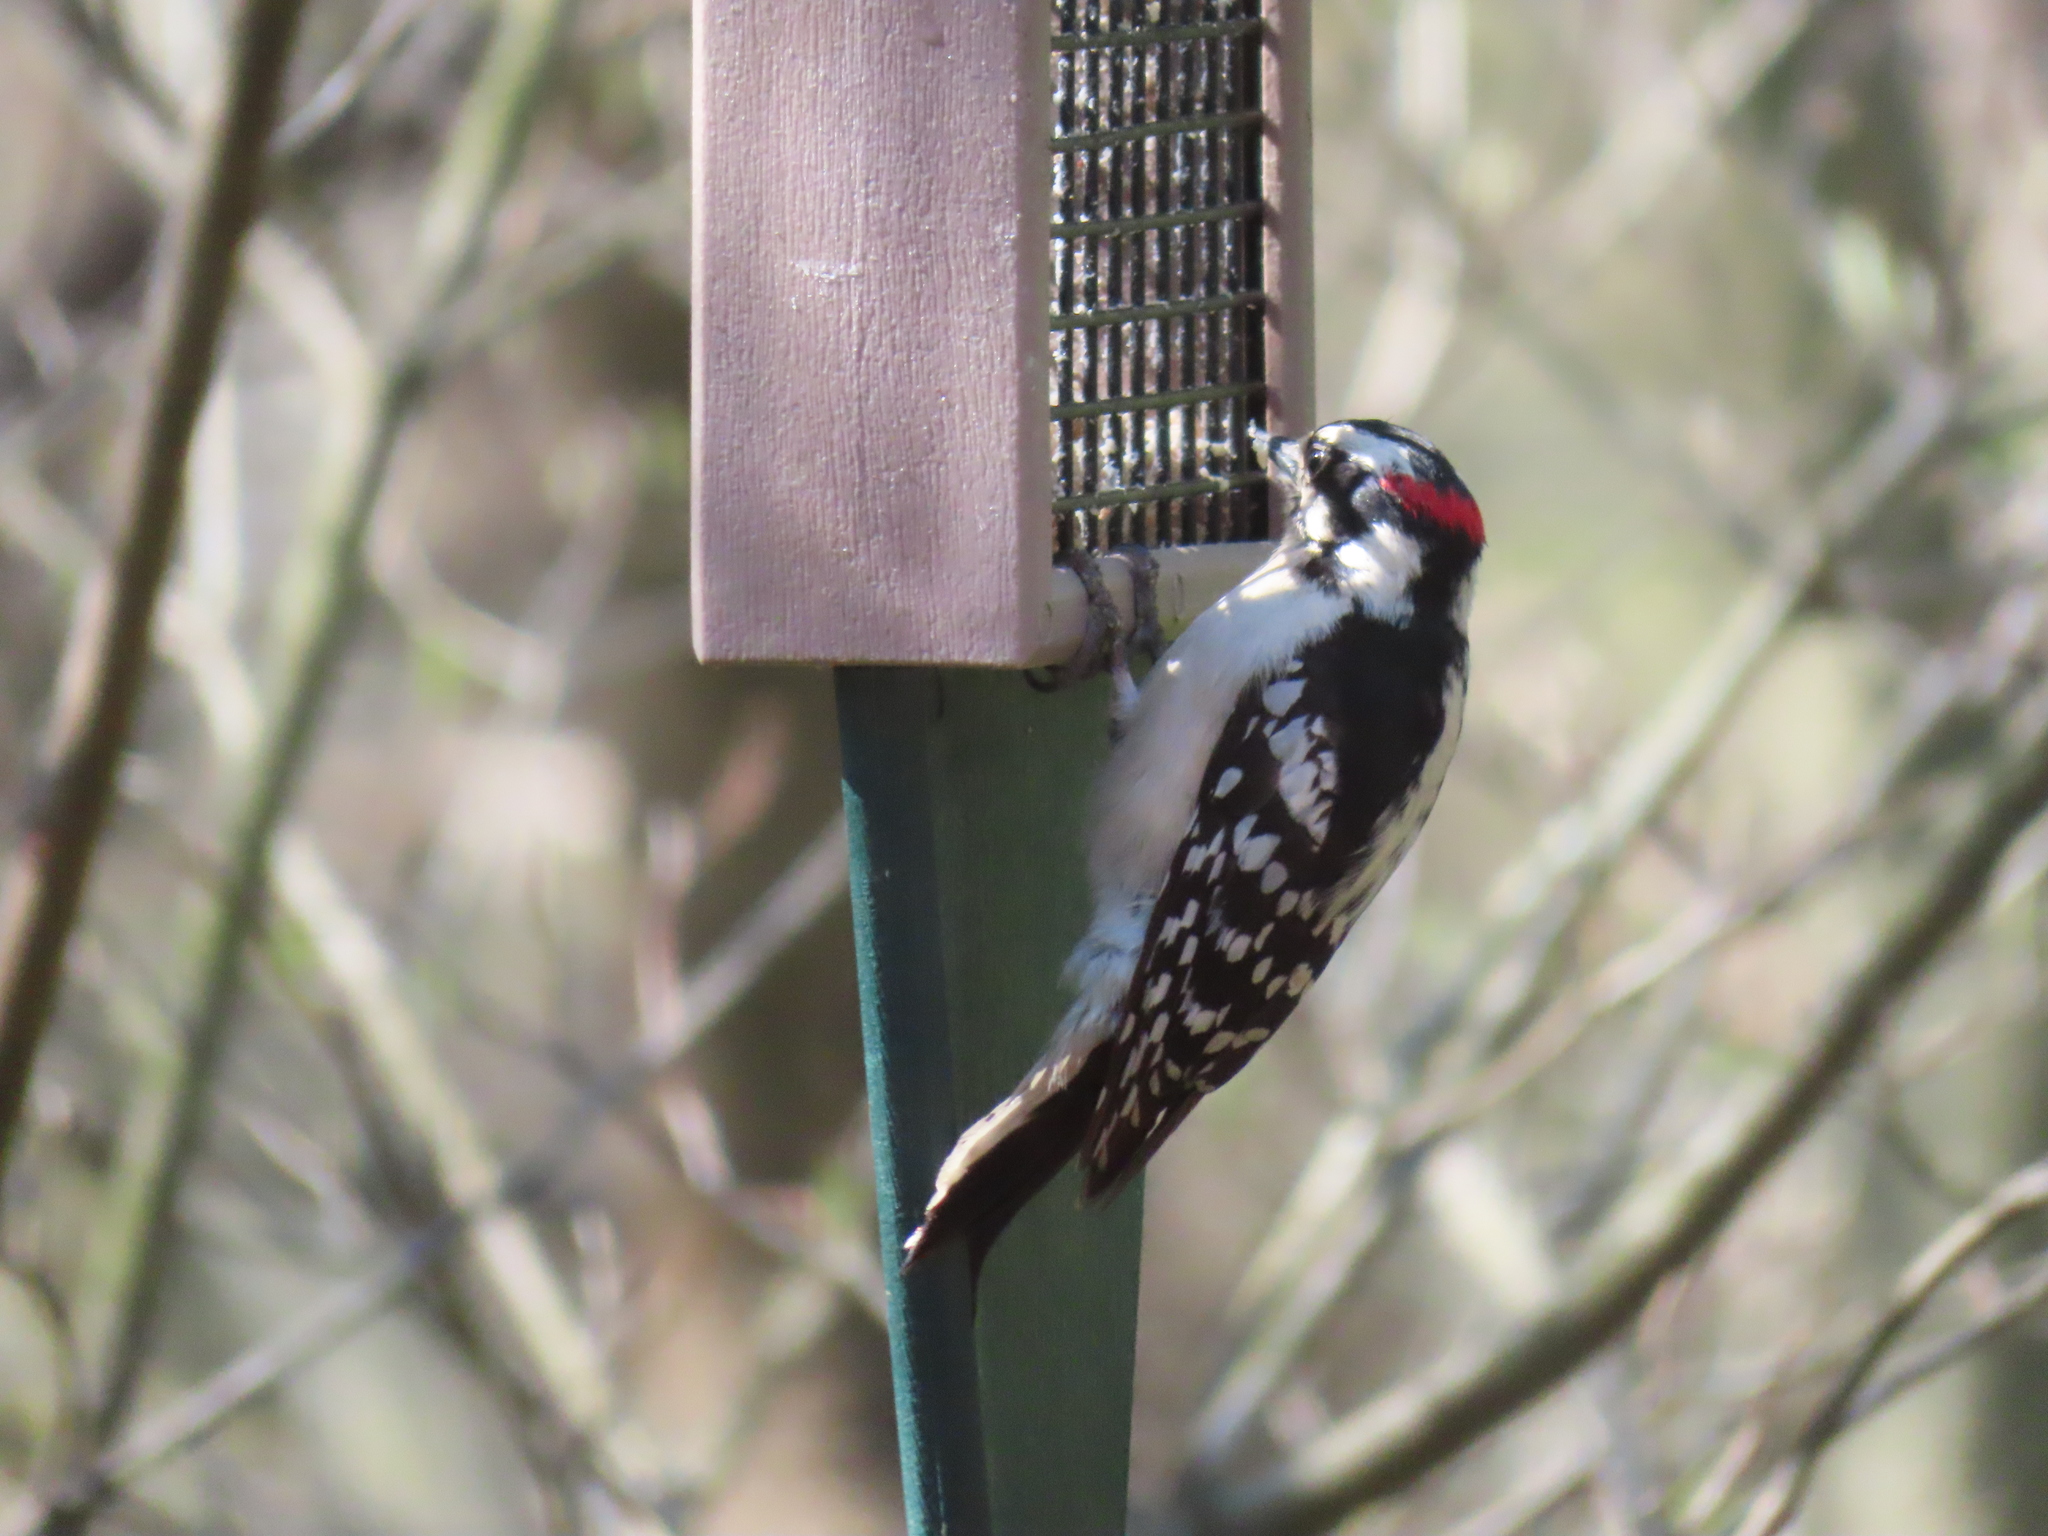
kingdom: Animalia
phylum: Chordata
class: Aves
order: Piciformes
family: Picidae
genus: Dryobates
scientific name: Dryobates pubescens
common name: Downy woodpecker
